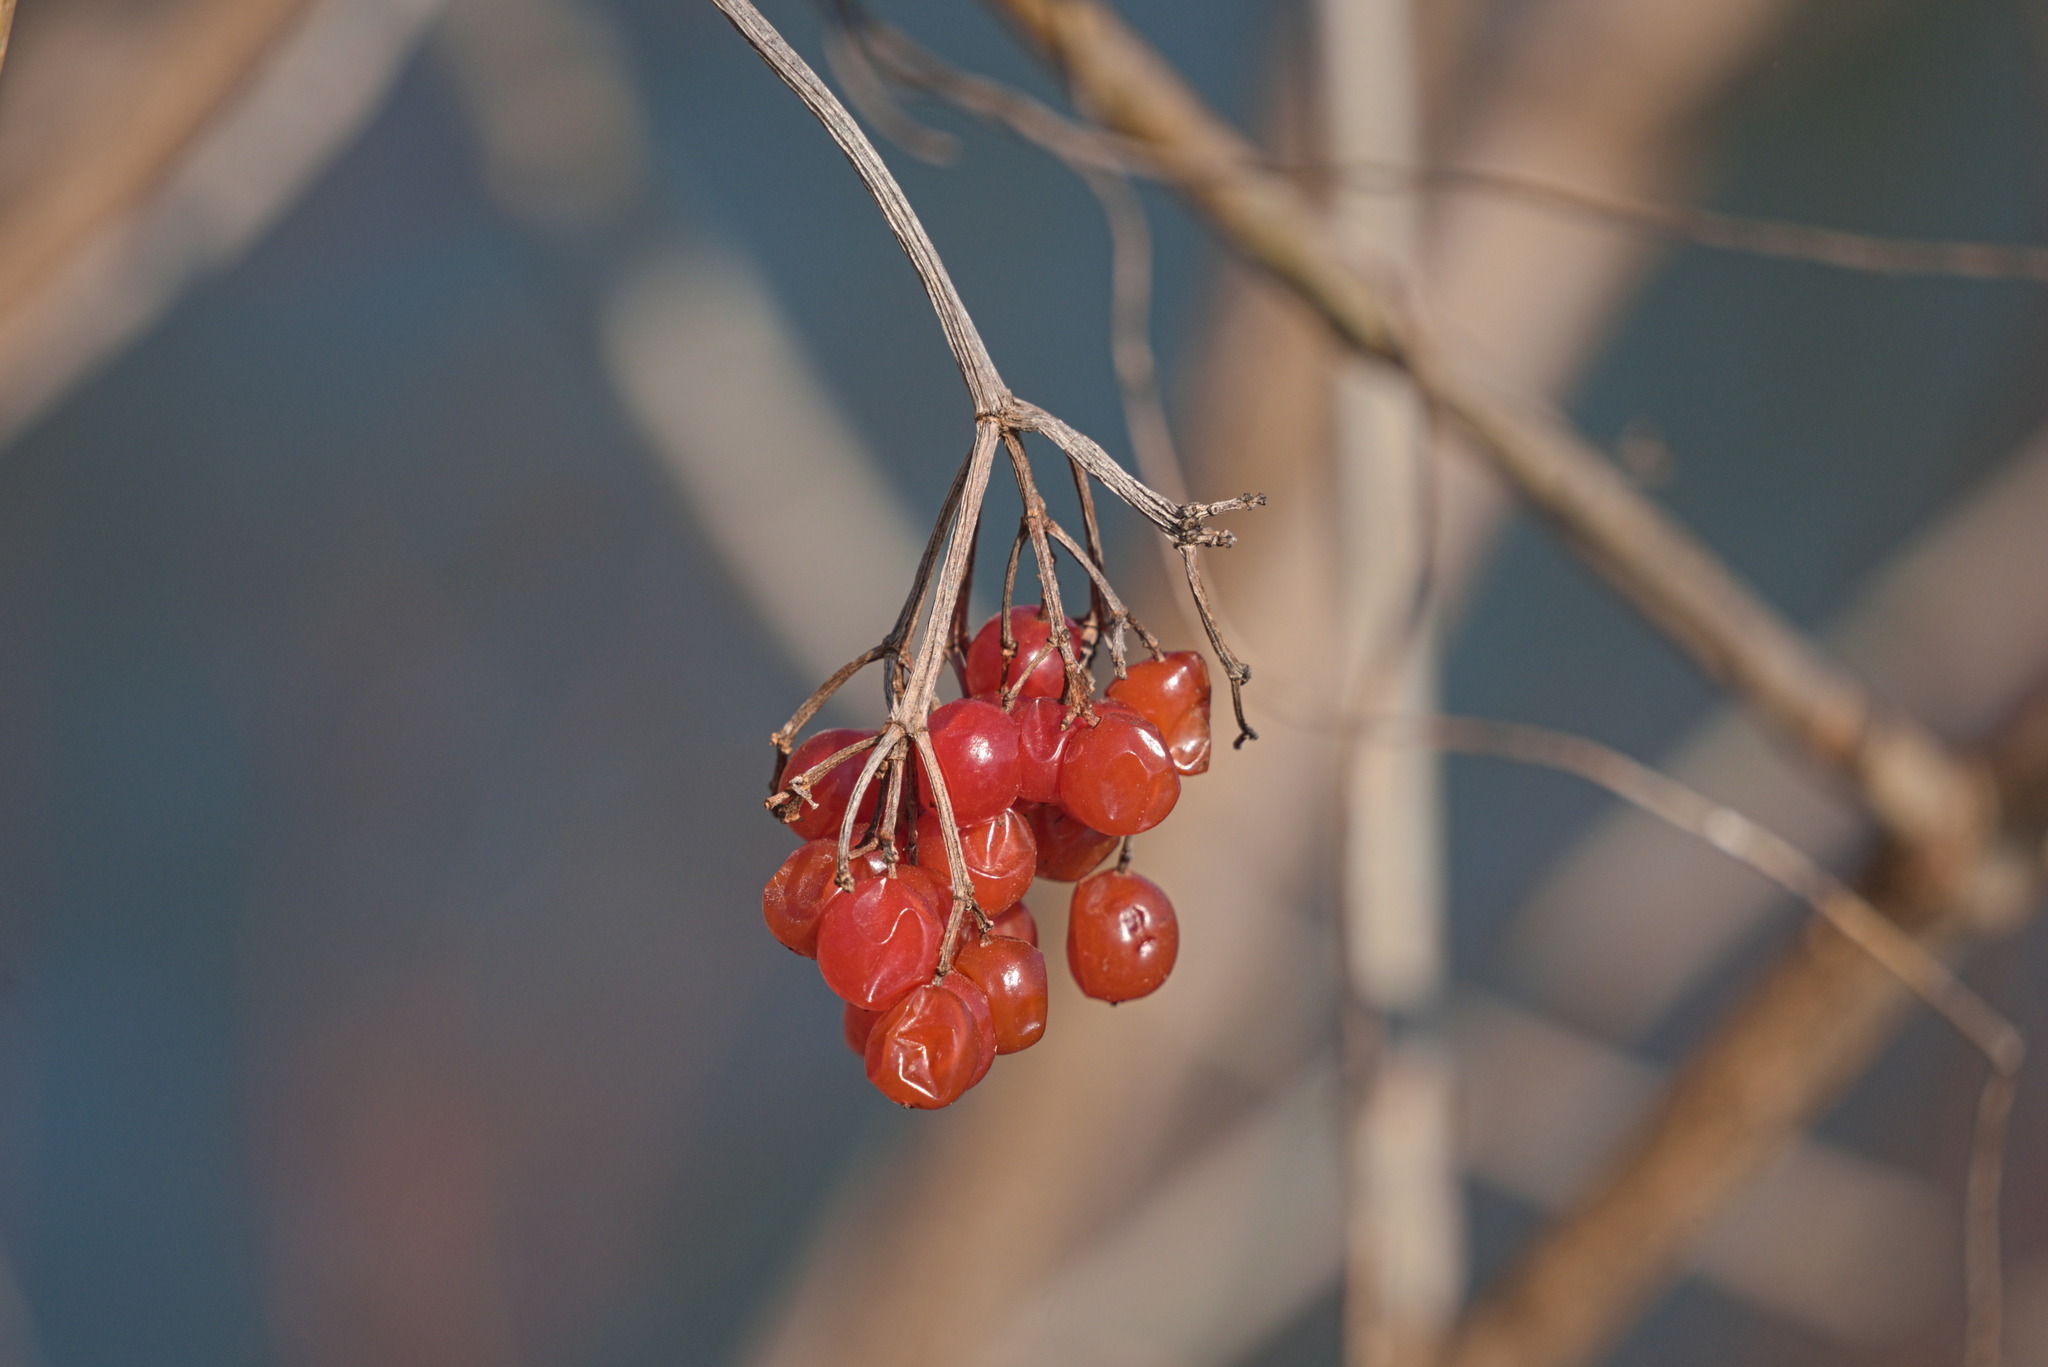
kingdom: Plantae
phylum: Tracheophyta
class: Magnoliopsida
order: Dipsacales
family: Viburnaceae
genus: Viburnum
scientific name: Viburnum opulus
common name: Guelder-rose
